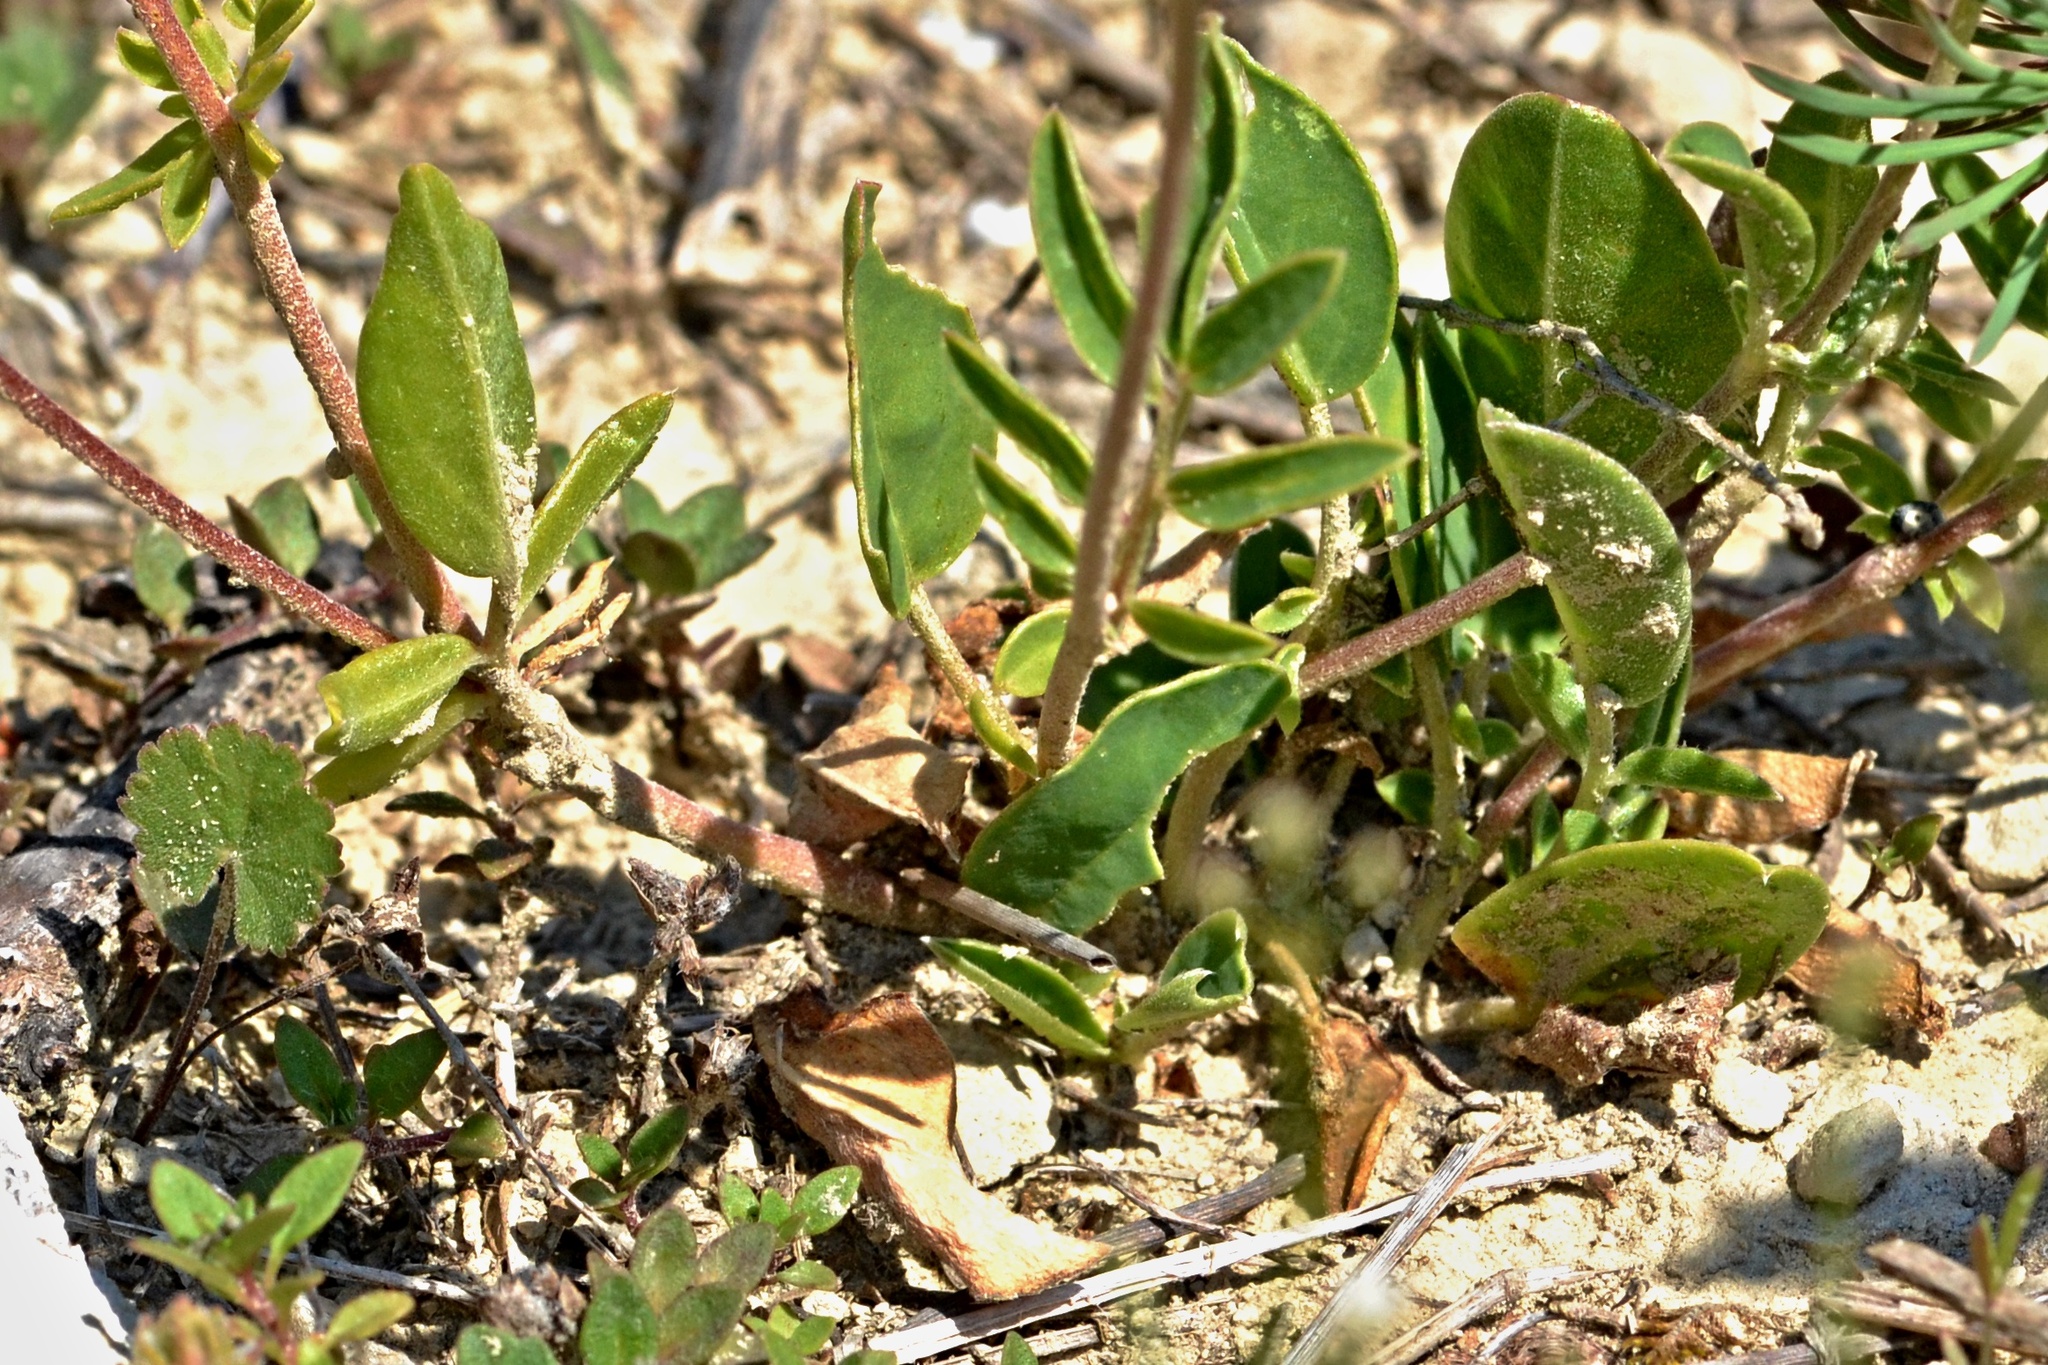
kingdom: Plantae
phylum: Tracheophyta
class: Magnoliopsida
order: Fabales
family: Fabaceae
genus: Anthyllis
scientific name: Anthyllis vulneraria
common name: Kidney vetch
